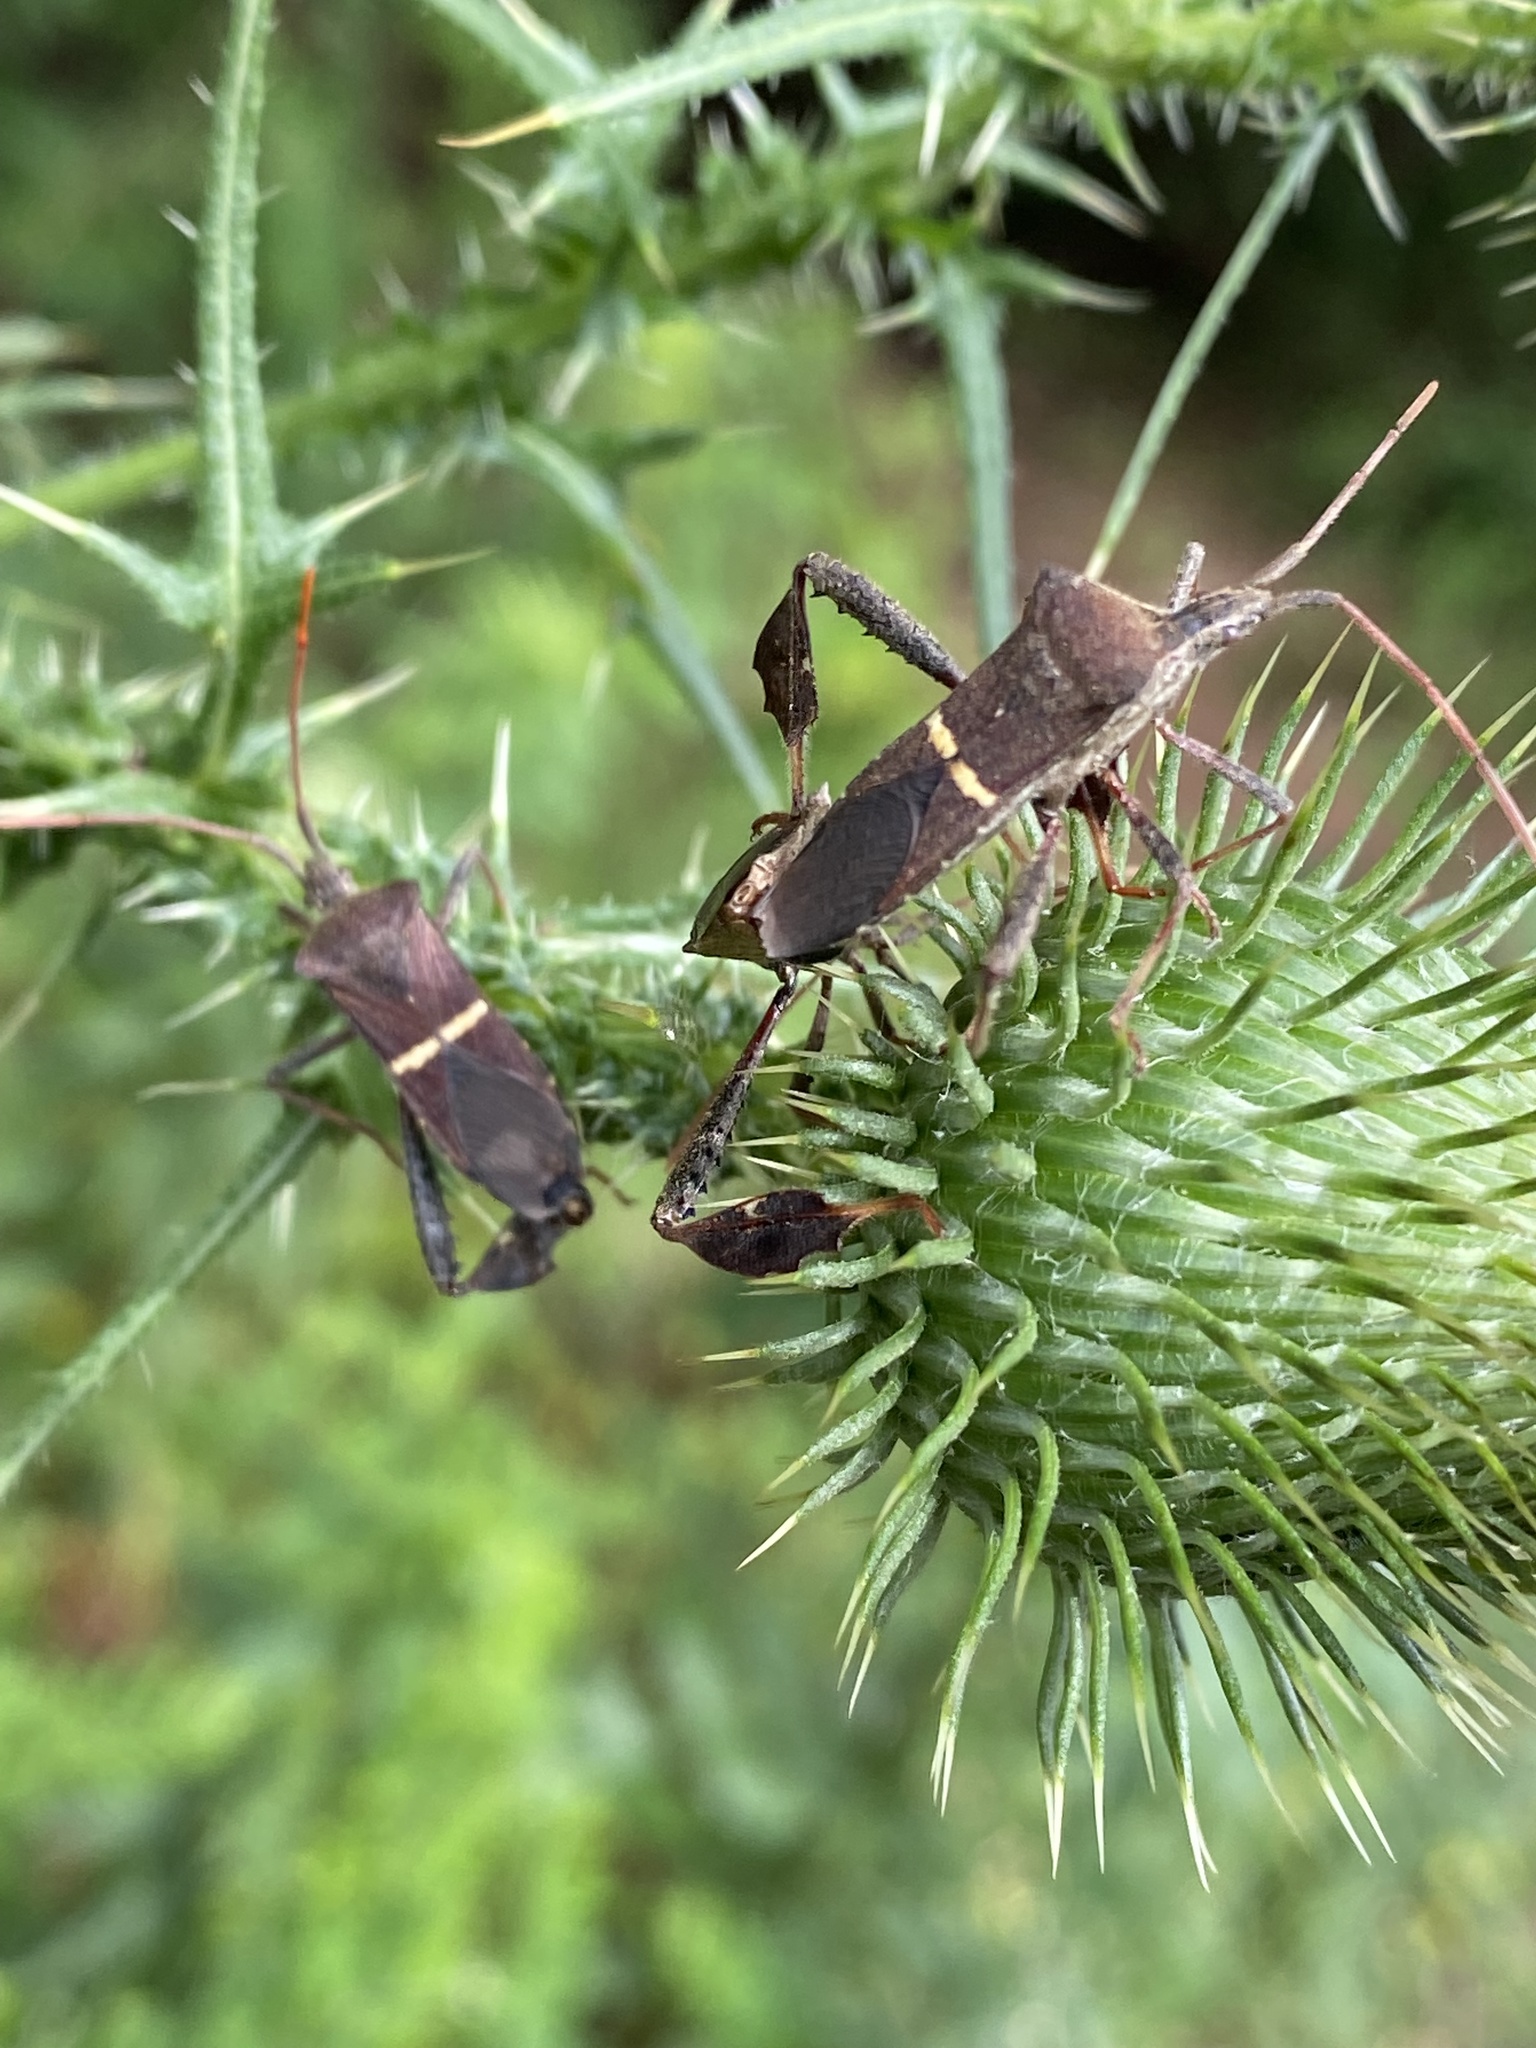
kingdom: Animalia
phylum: Arthropoda
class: Insecta
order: Hemiptera
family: Coreidae
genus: Leptoglossus
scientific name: Leptoglossus phyllopus
